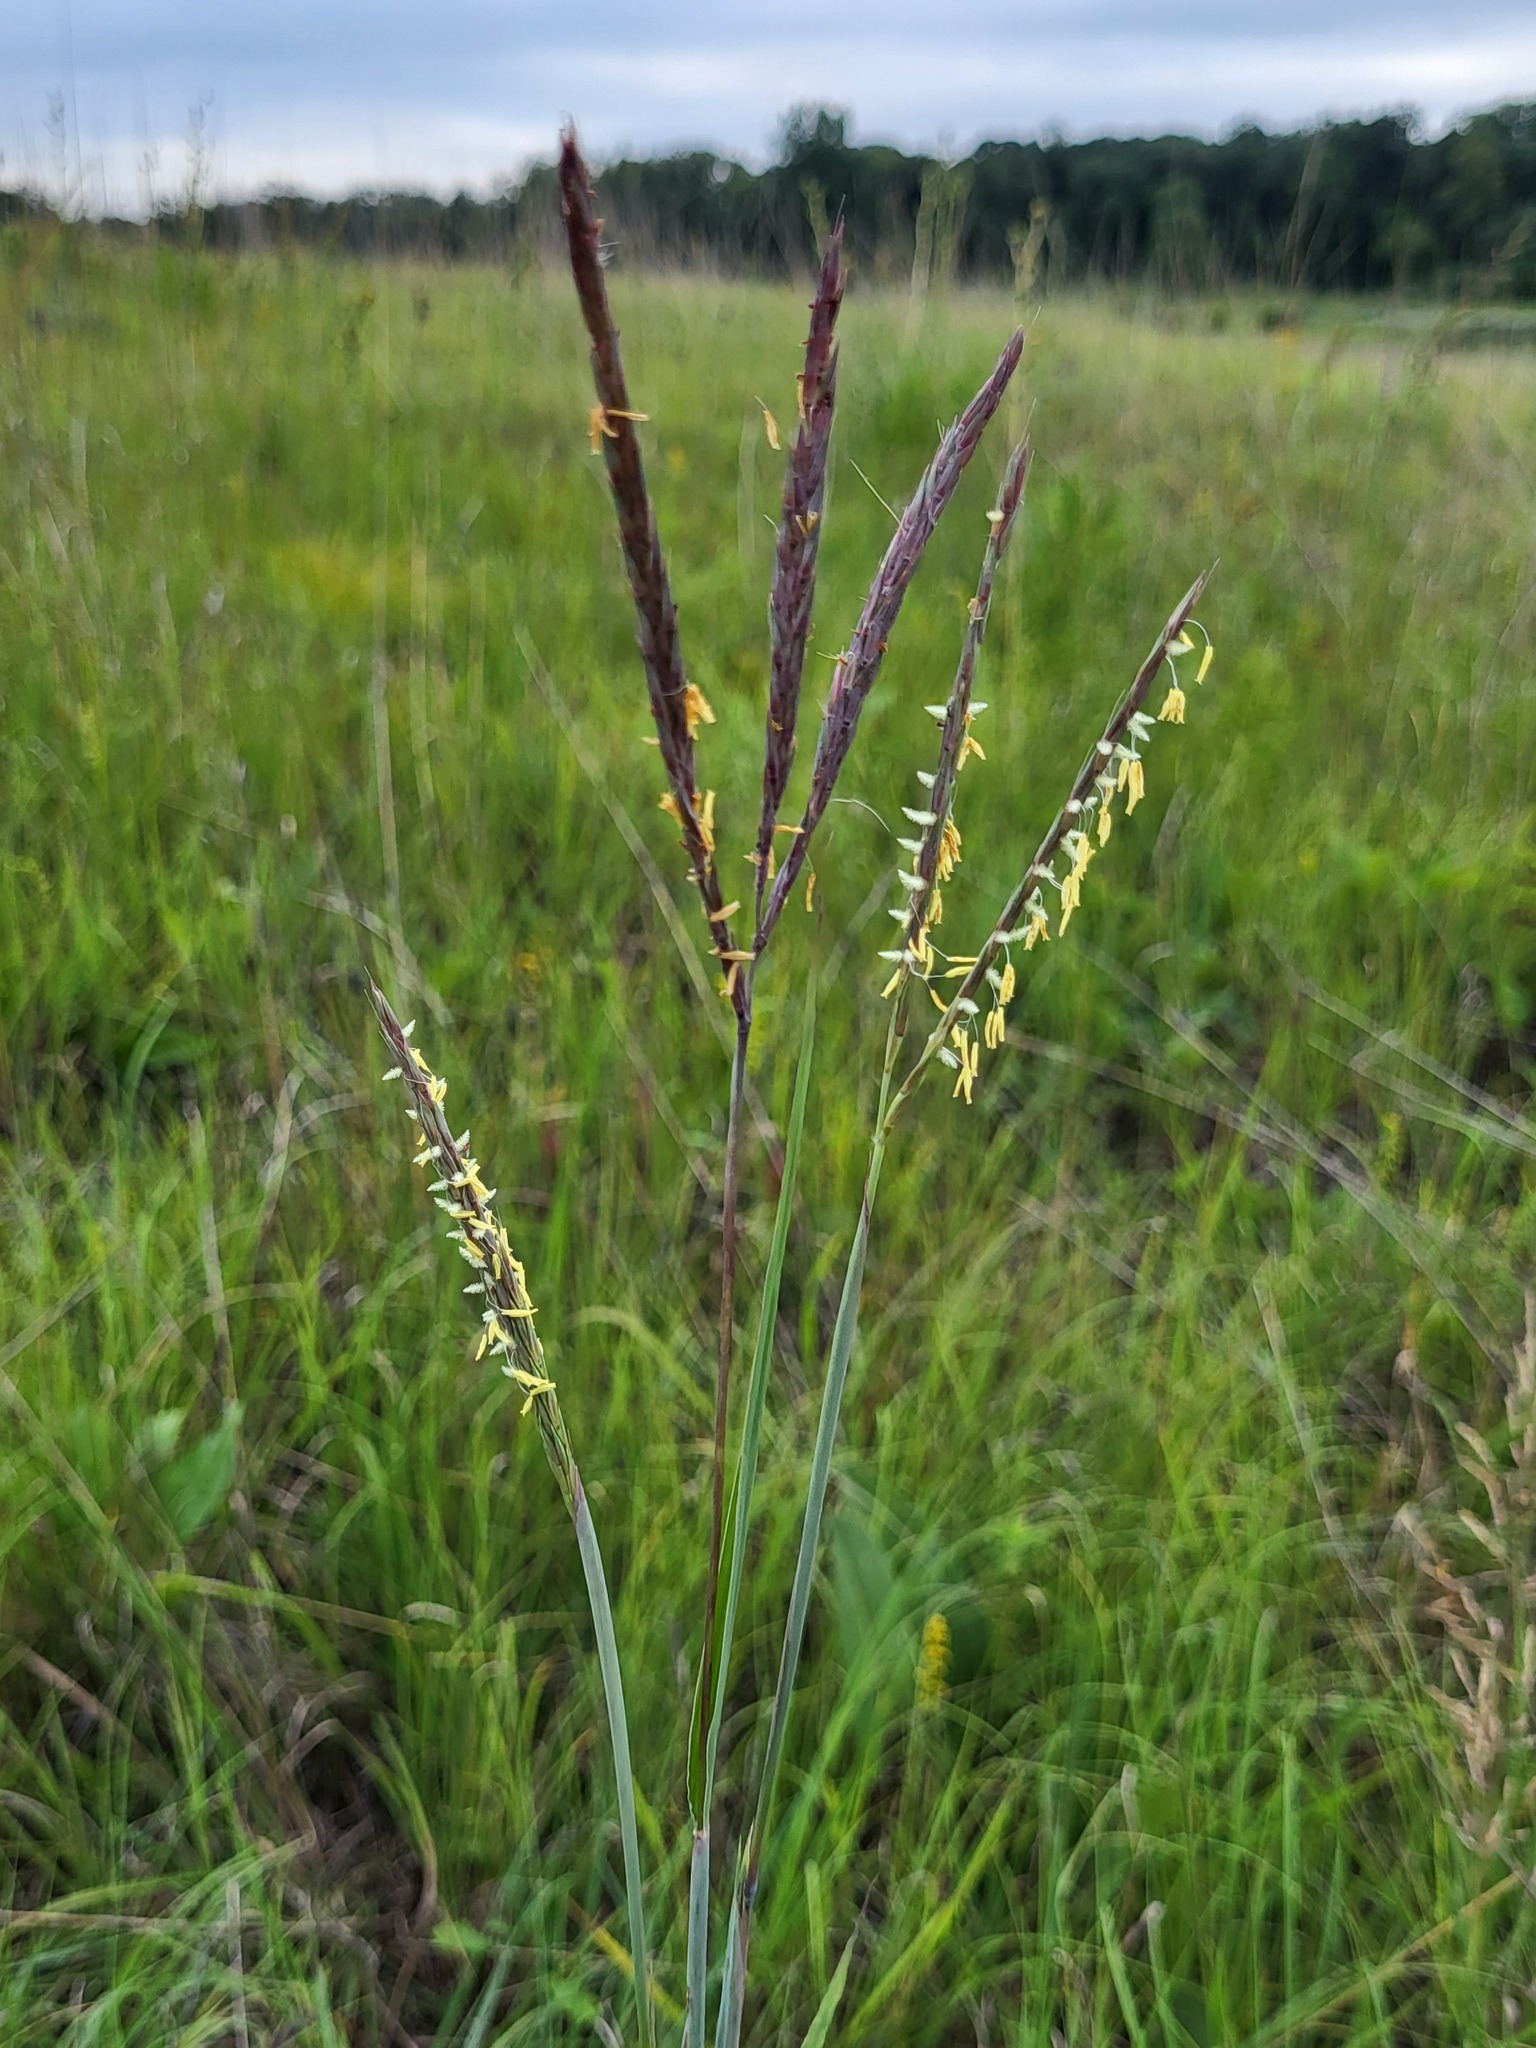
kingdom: Plantae
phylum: Tracheophyta
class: Liliopsida
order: Poales
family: Poaceae
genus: Andropogon
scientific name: Andropogon gerardi
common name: Big bluestem
